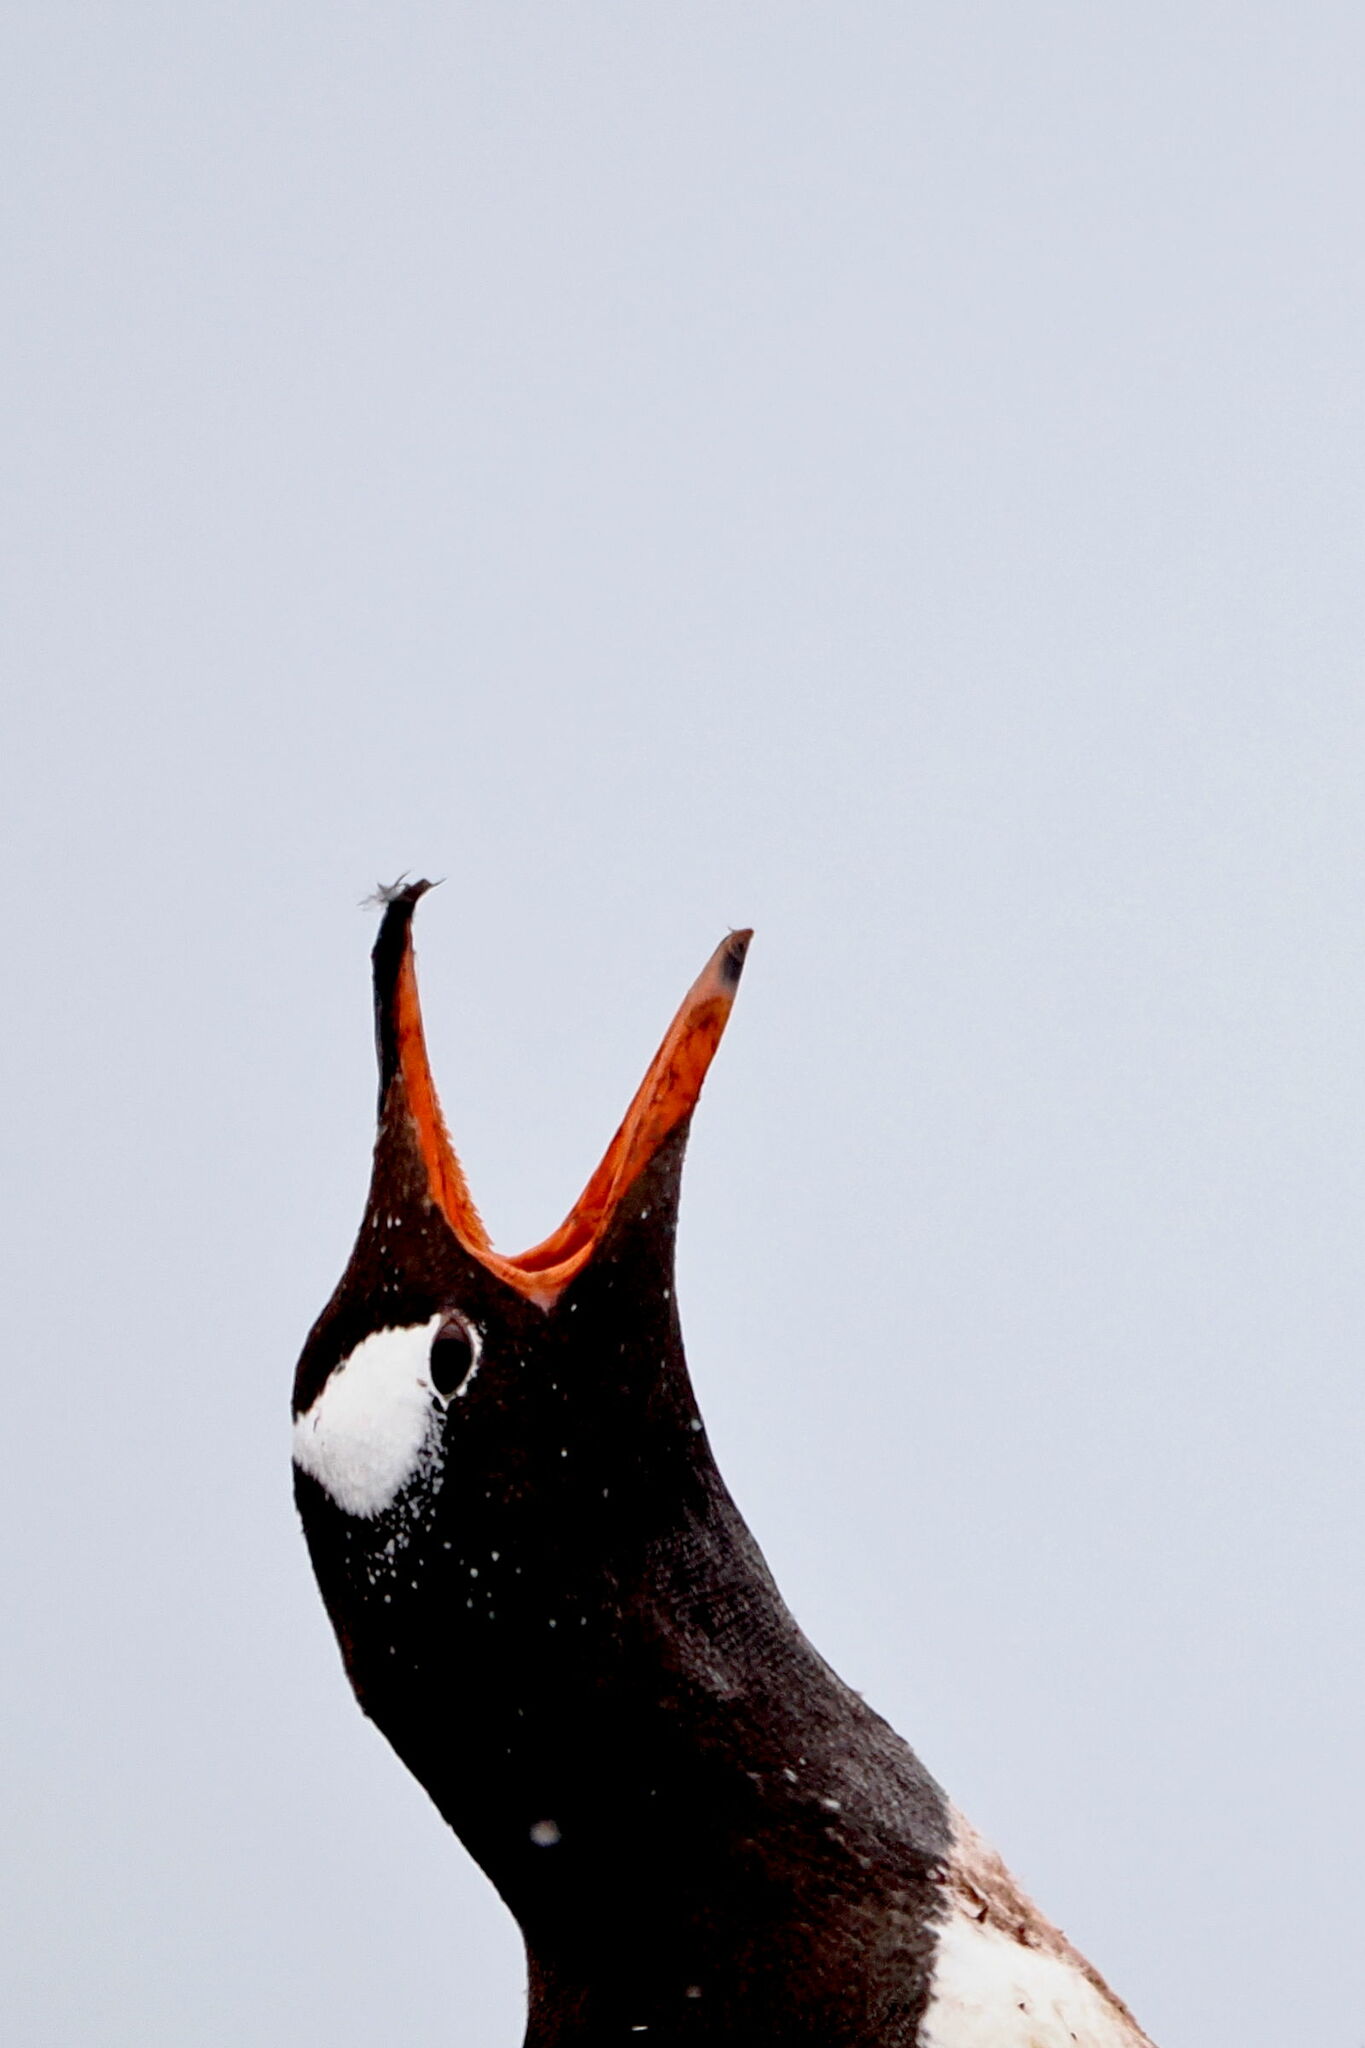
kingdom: Animalia
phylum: Chordata
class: Aves
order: Sphenisciformes
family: Spheniscidae
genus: Pygoscelis
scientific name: Pygoscelis papua
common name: Gentoo penguin
